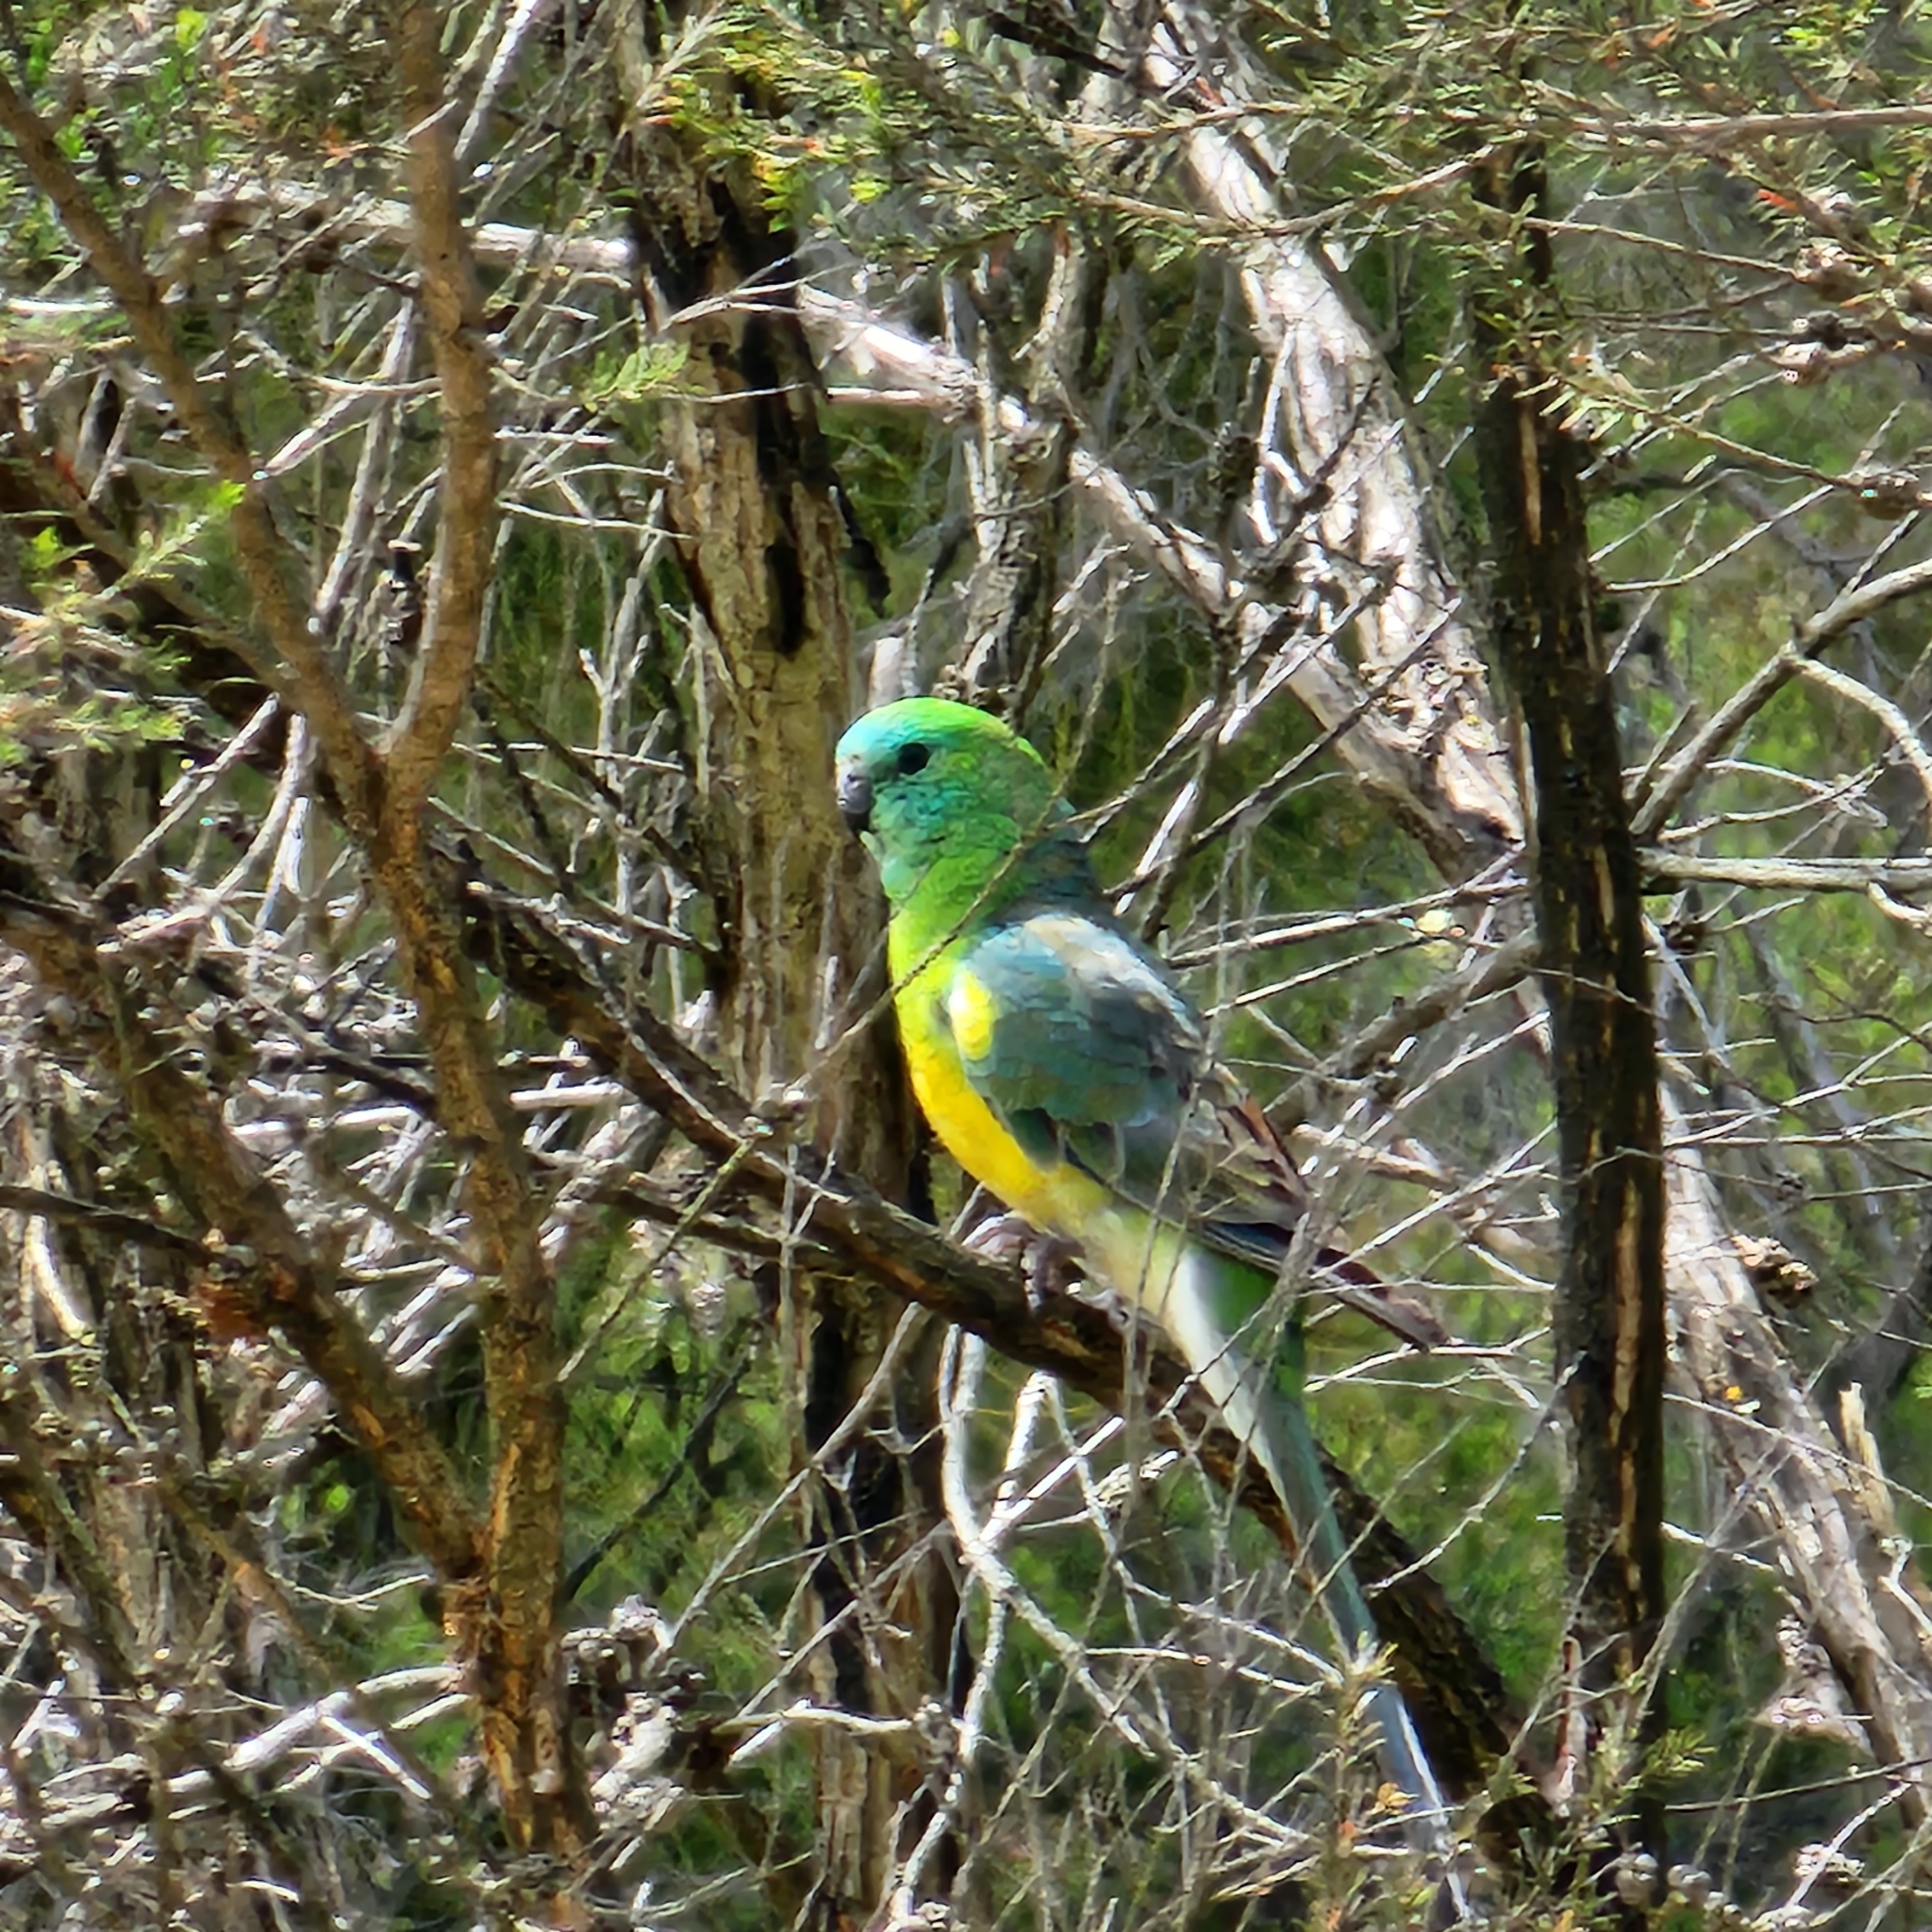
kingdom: Animalia
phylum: Chordata
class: Aves
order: Psittaciformes
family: Psittacidae
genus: Psephotus
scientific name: Psephotus haematonotus
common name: Red-rumped parrot
